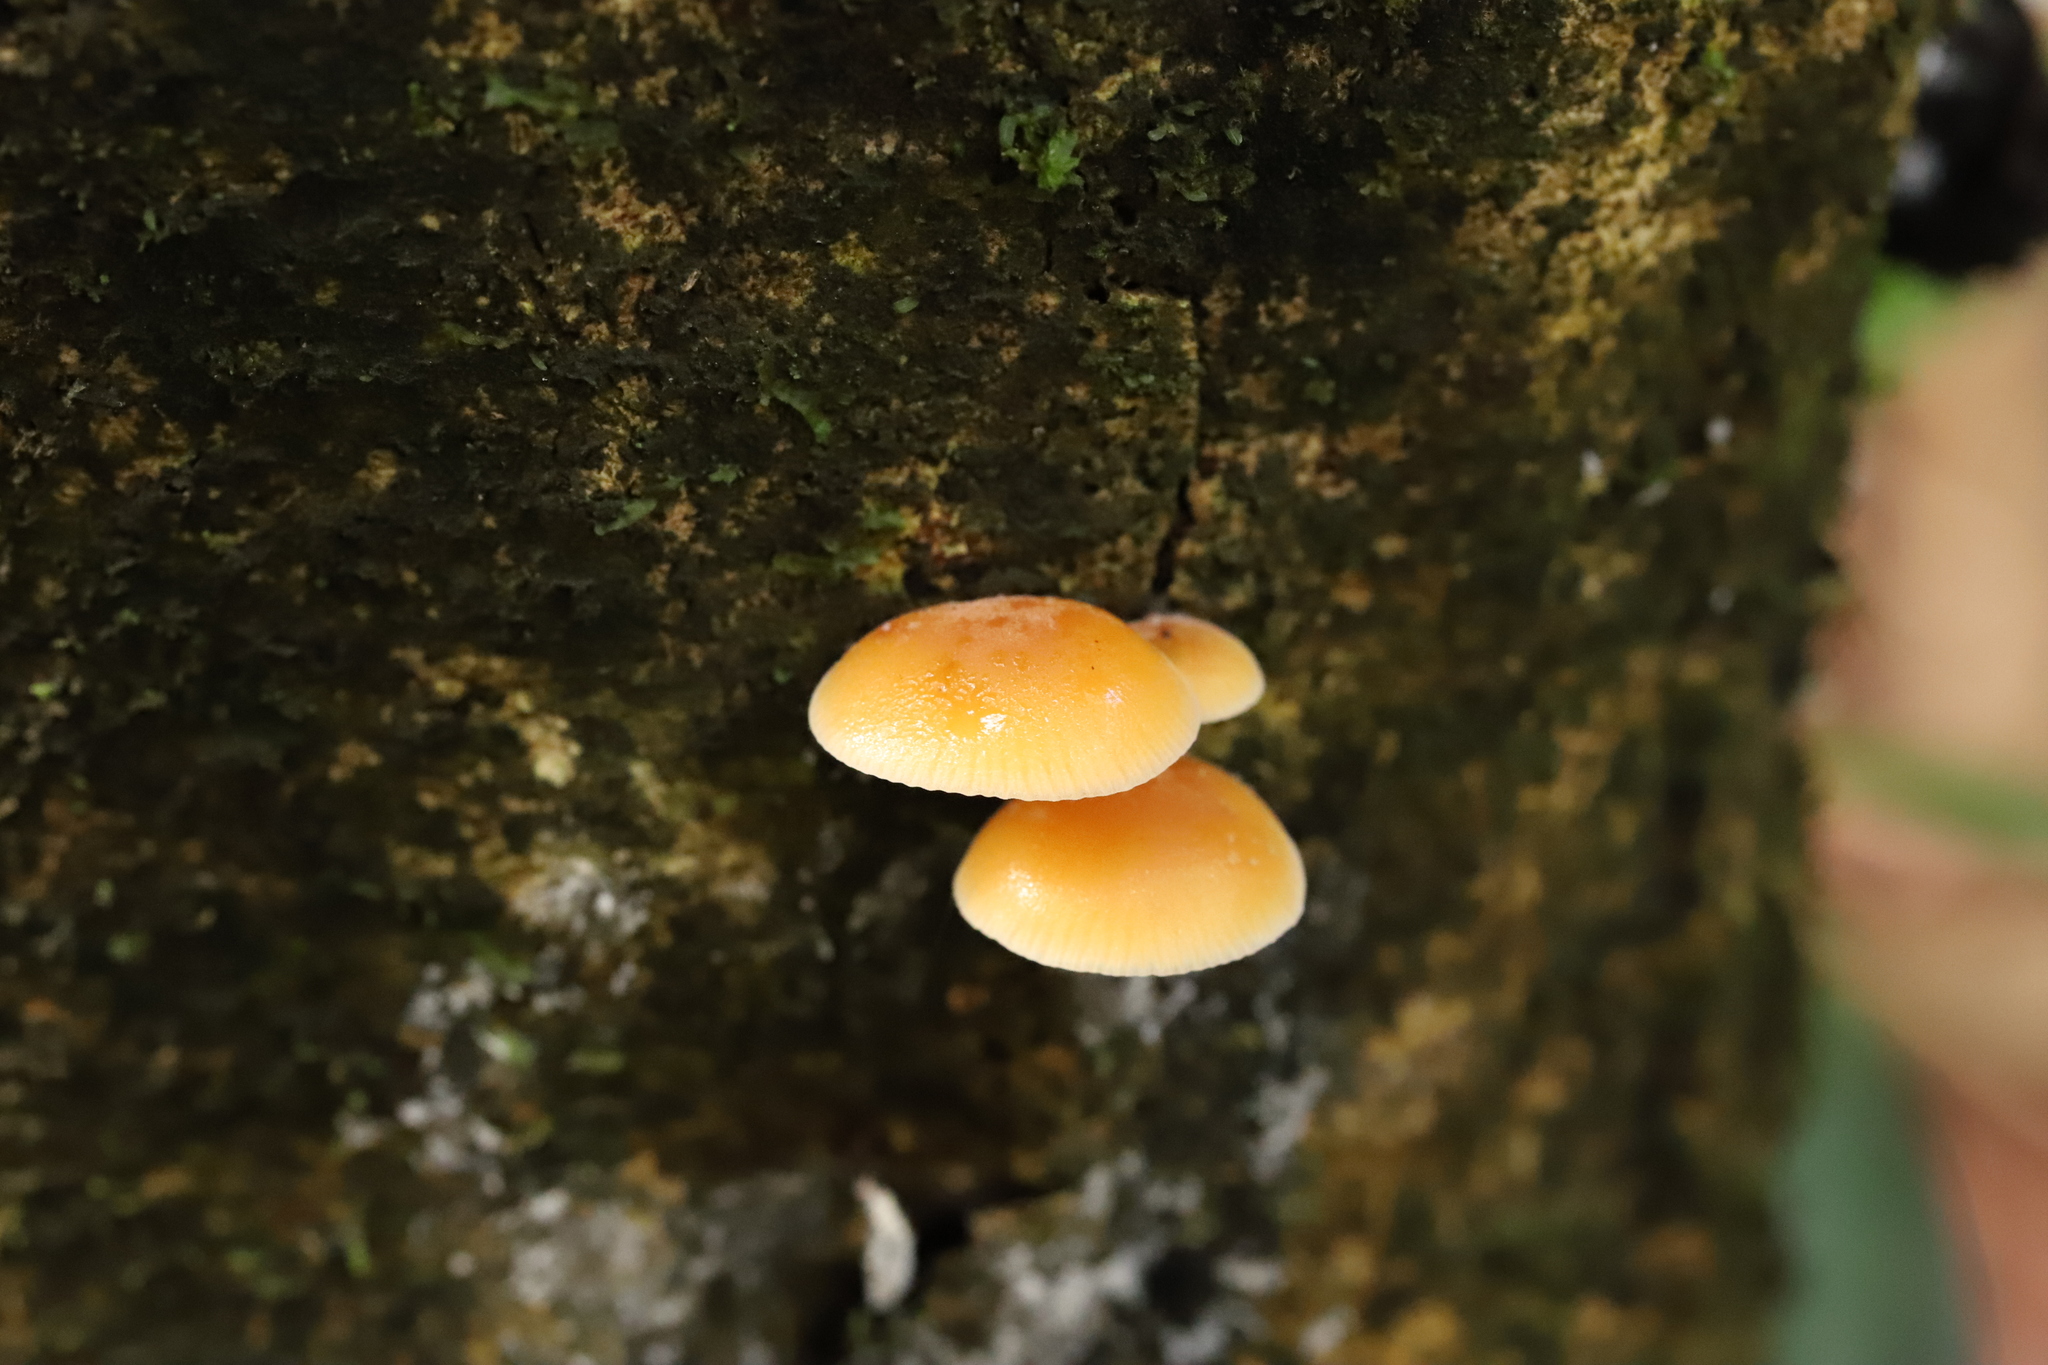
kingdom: Fungi
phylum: Basidiomycota
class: Agaricomycetes
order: Agaricales
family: Physalacriaceae
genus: Flammulina
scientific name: Flammulina velutipes
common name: Velvet shank
